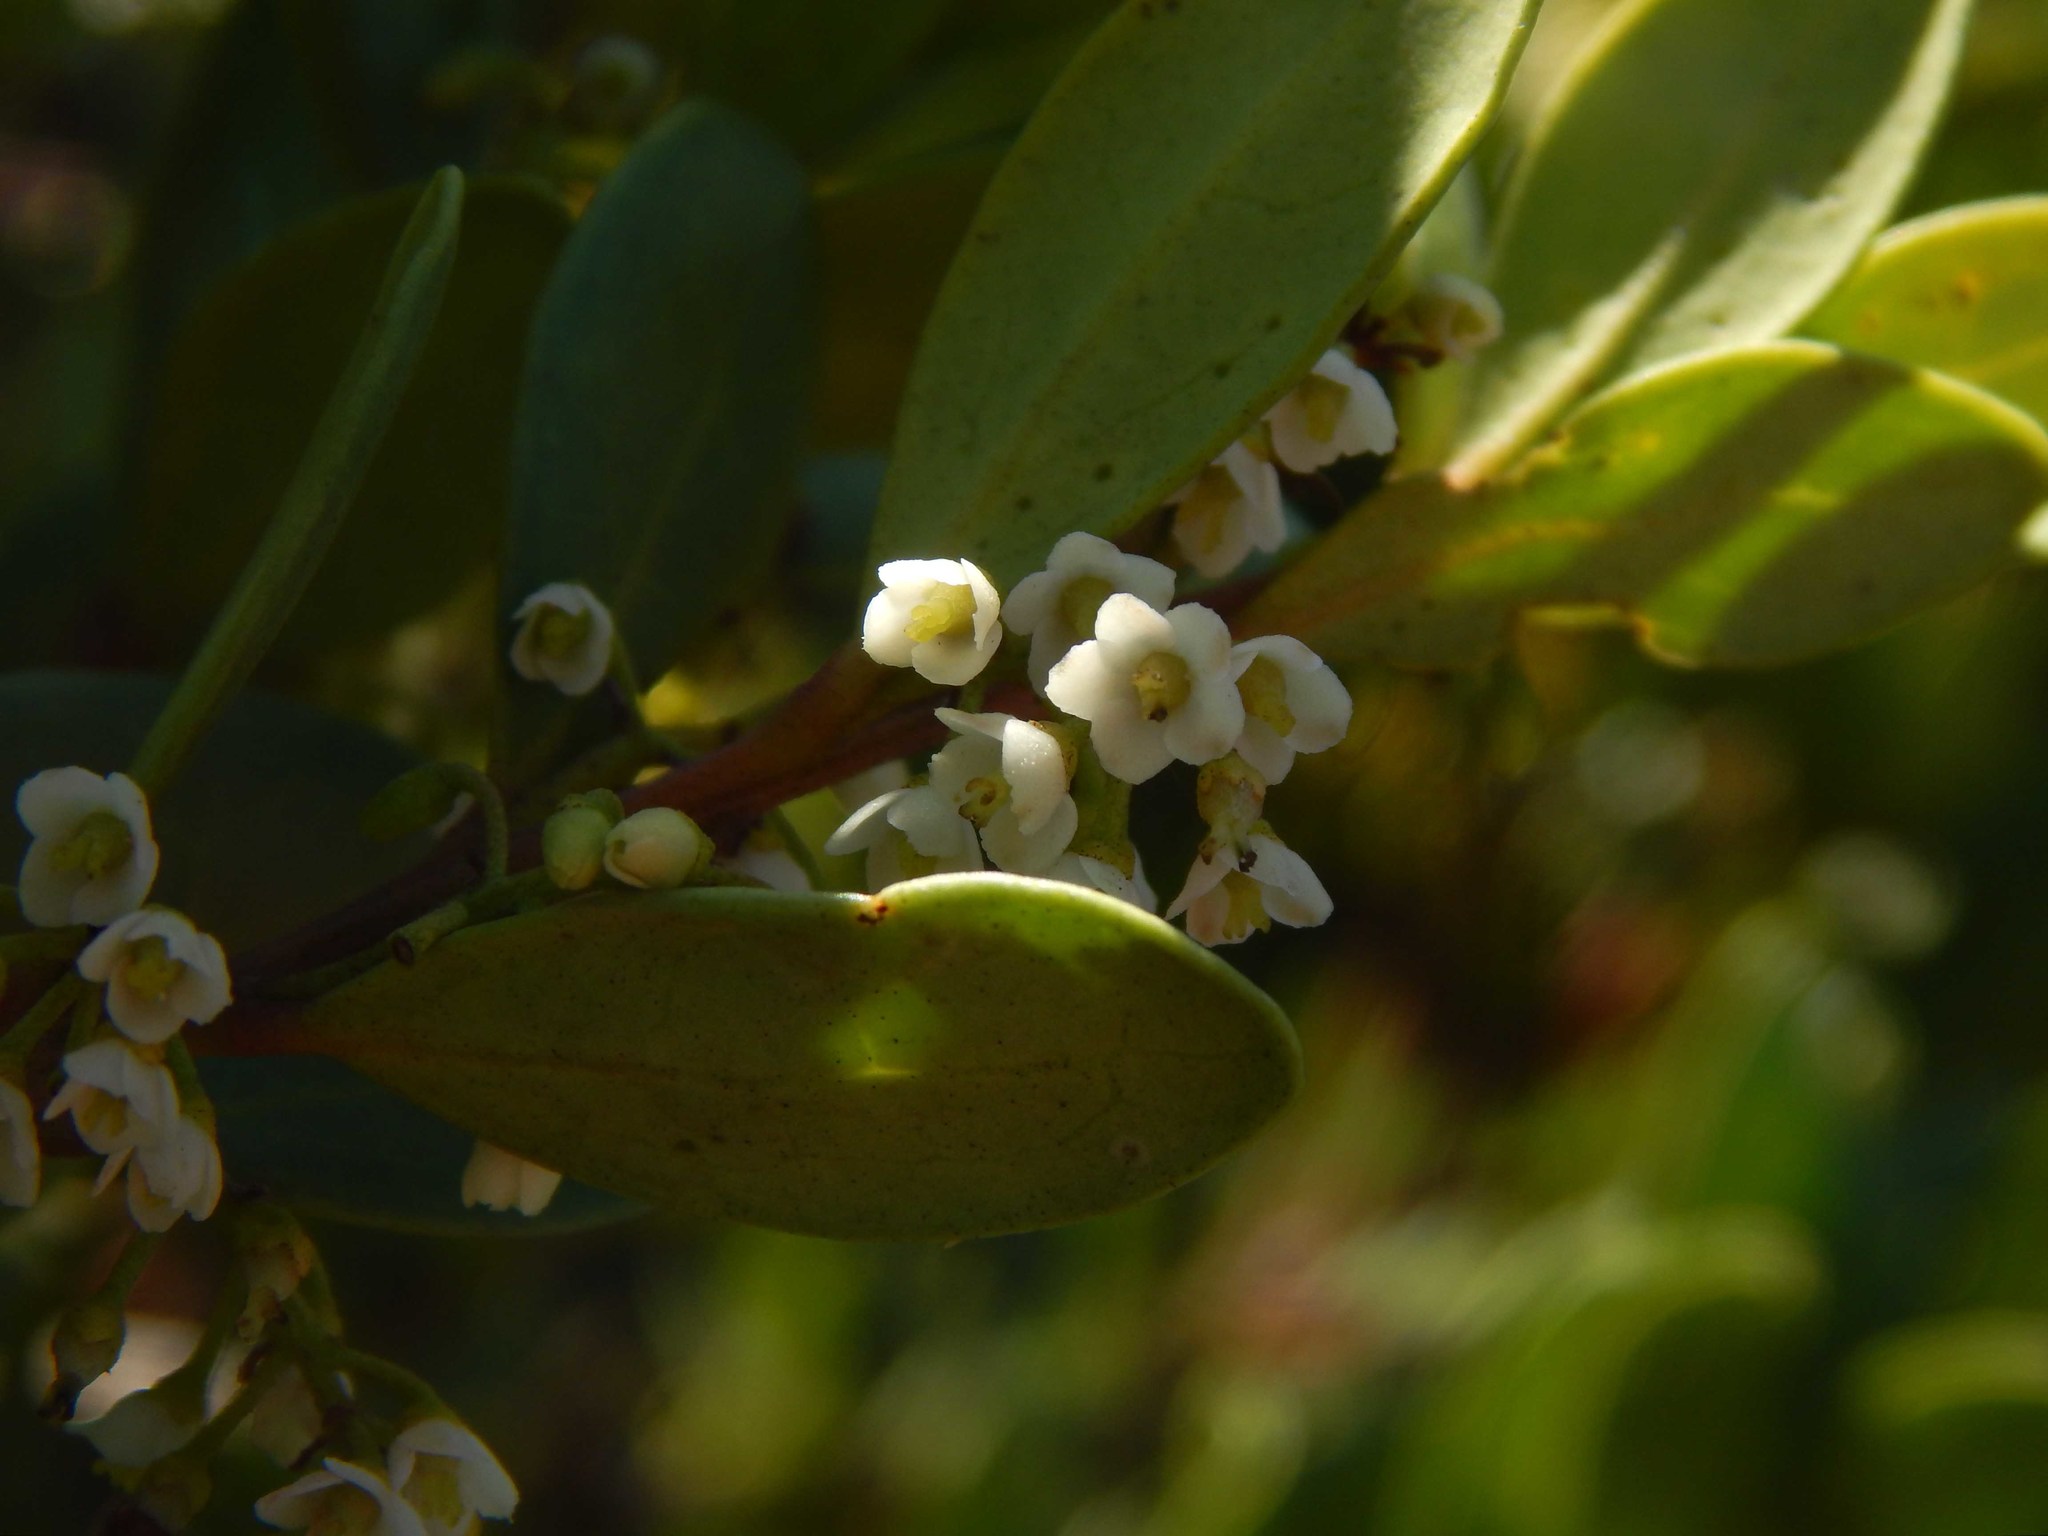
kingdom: Plantae
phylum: Tracheophyta
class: Magnoliopsida
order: Ericales
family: Ebenaceae
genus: Euclea
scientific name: Euclea racemosa
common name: Dune guarri
